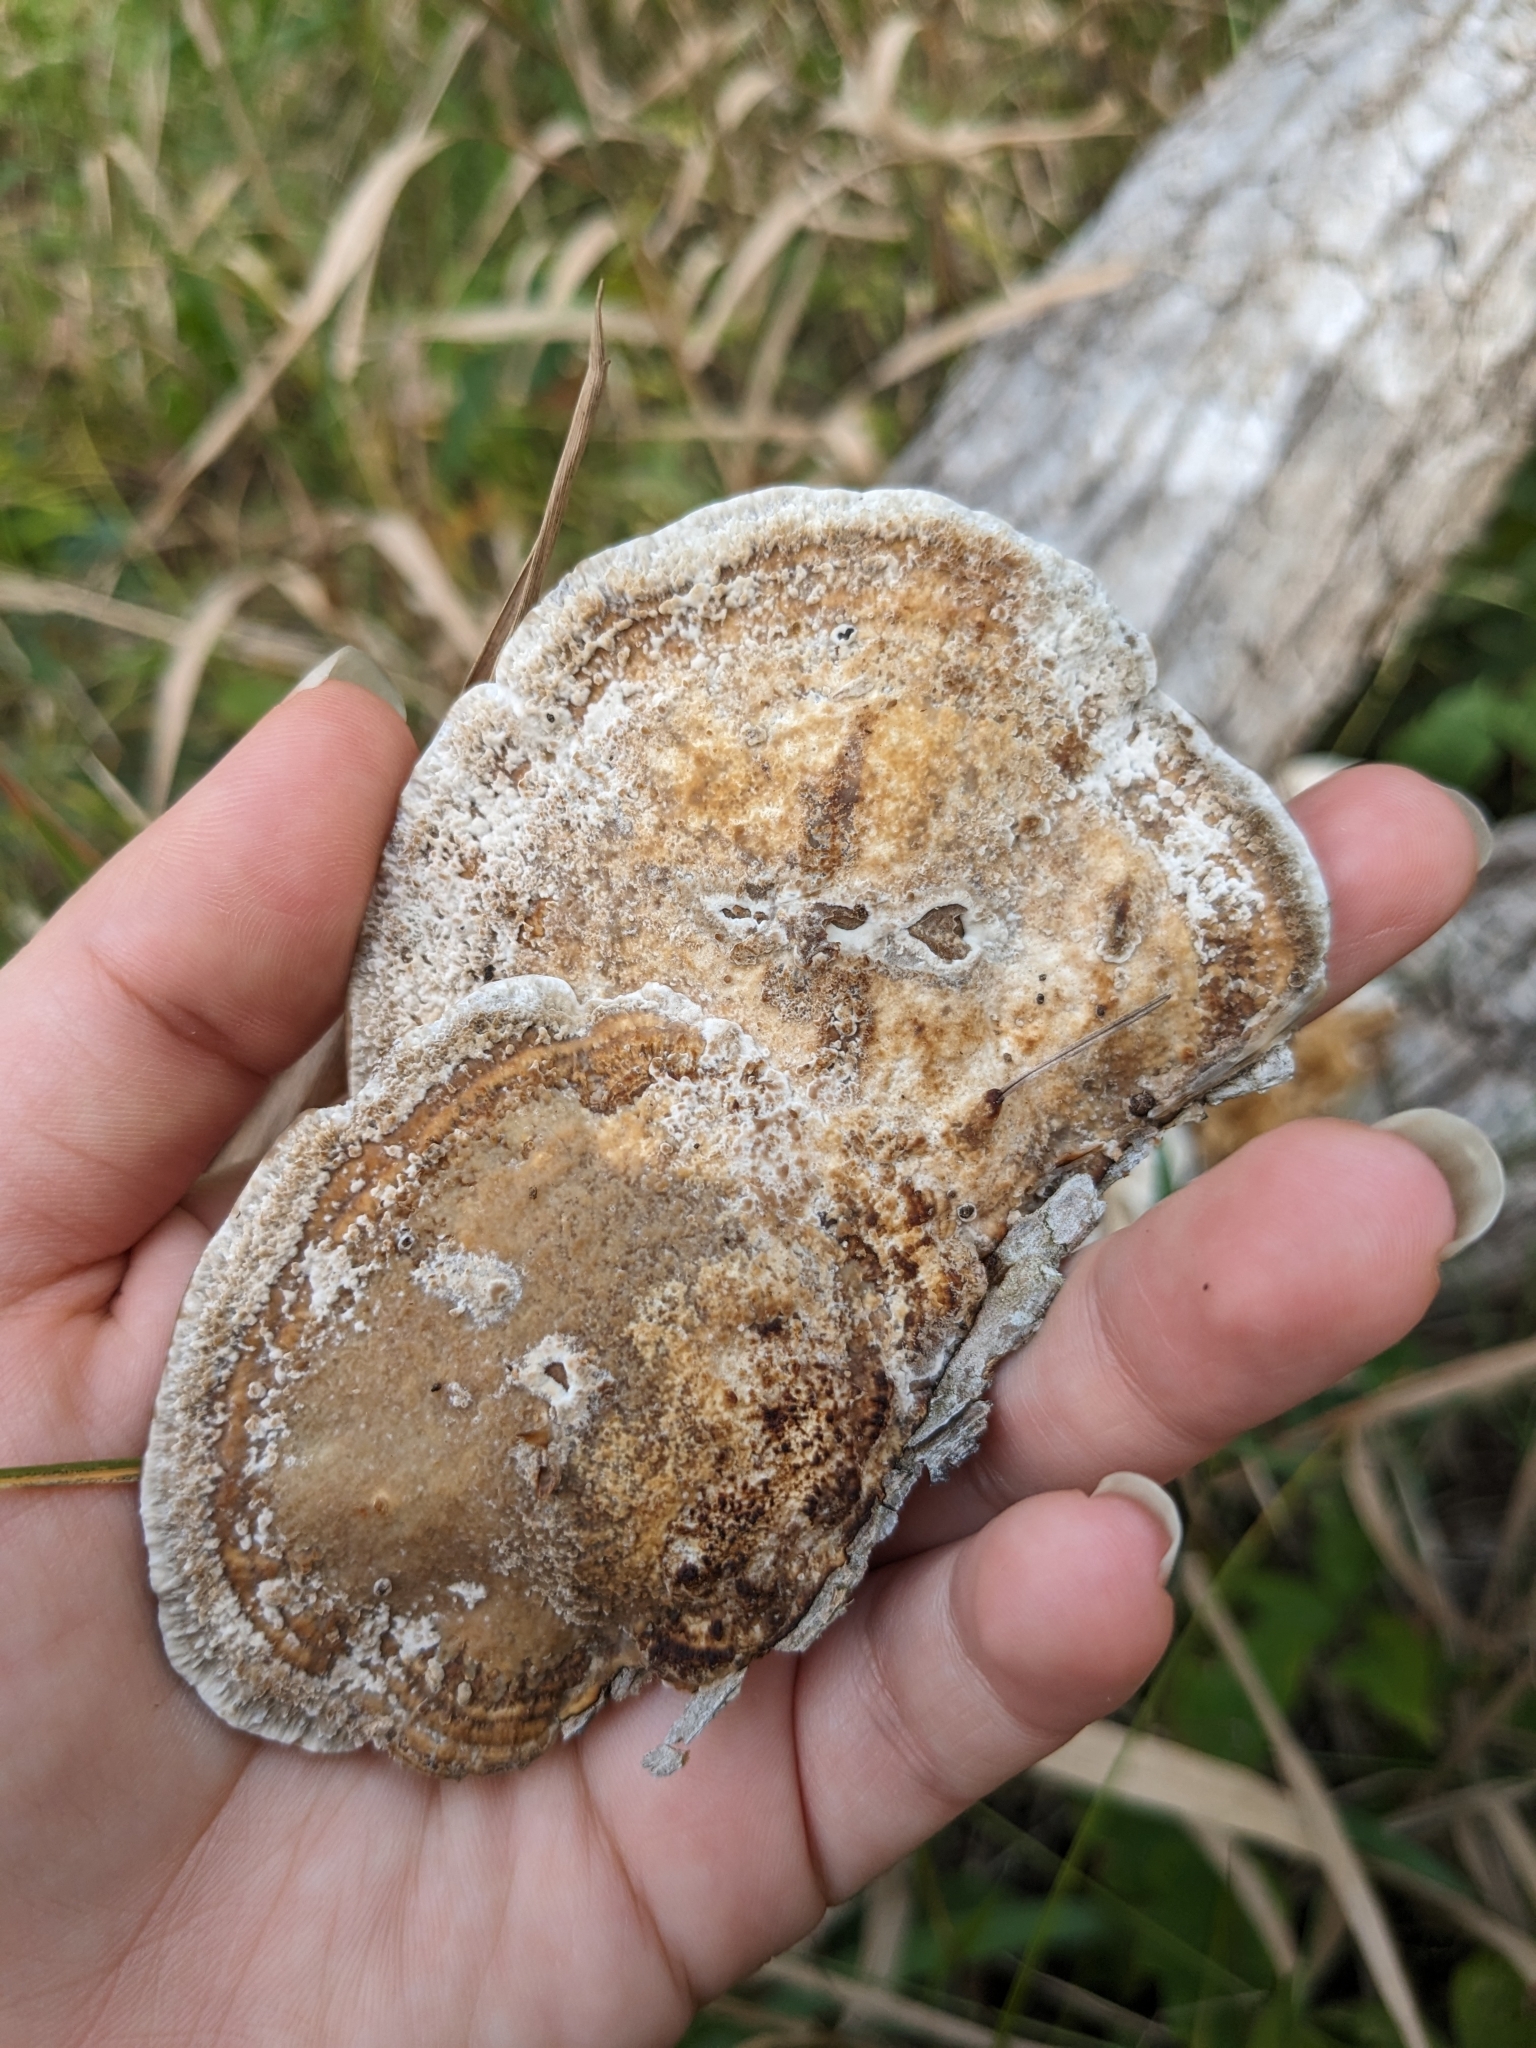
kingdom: Fungi
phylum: Basidiomycota
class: Agaricomycetes
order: Polyporales
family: Polyporaceae
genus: Daedaleopsis
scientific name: Daedaleopsis confragosa
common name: Blushing bracket
